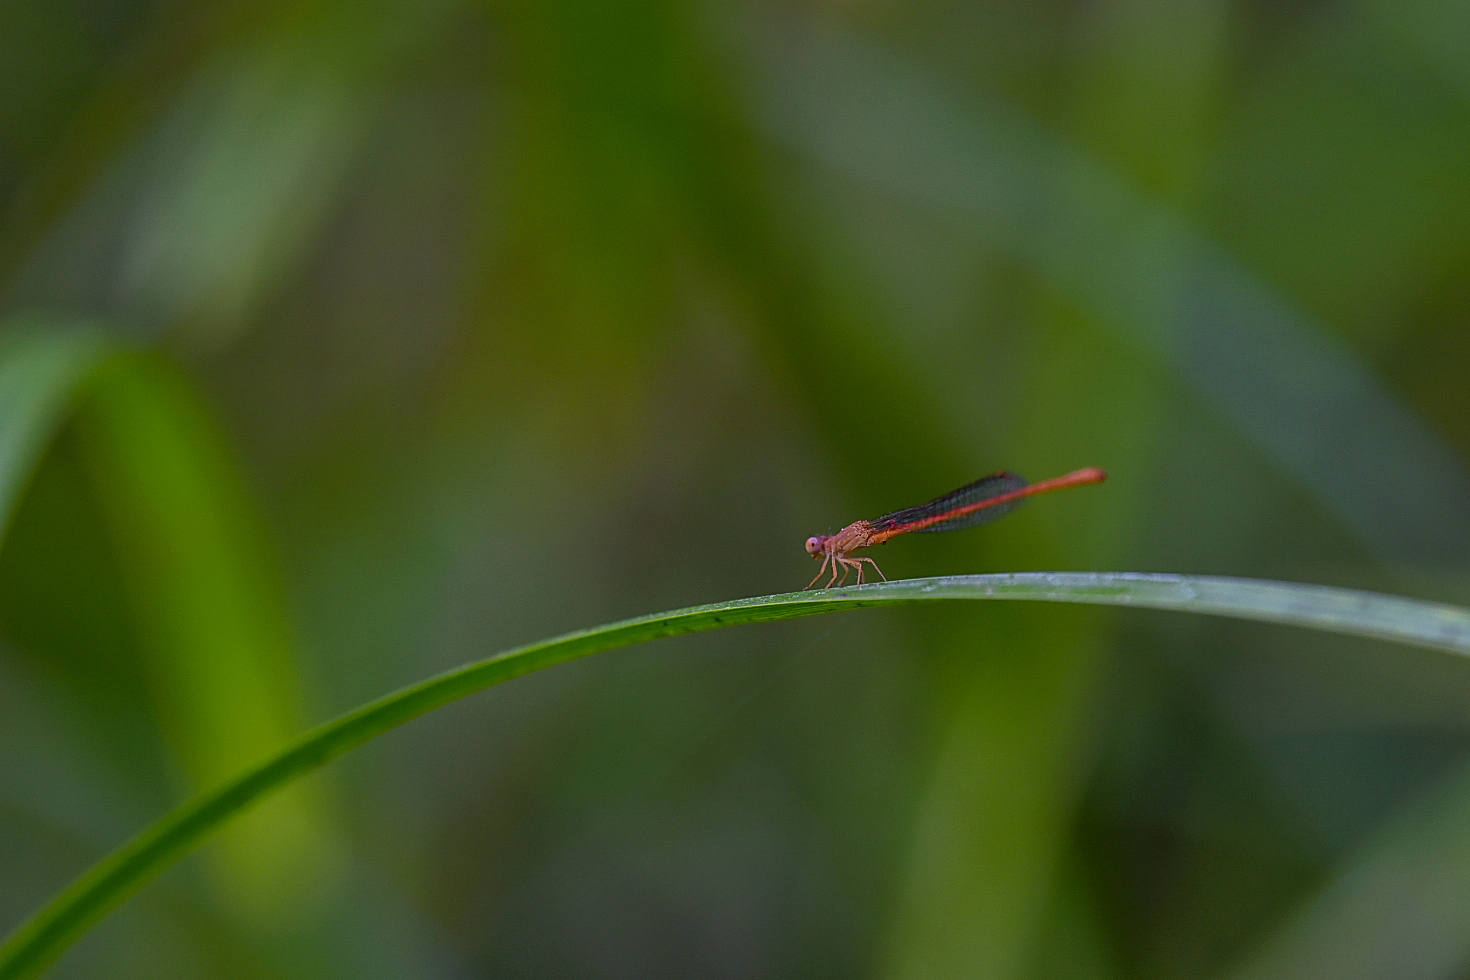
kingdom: Animalia
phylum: Arthropoda
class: Insecta
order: Odonata
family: Coenagrionidae
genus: Ceriagrion
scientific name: Ceriagrion rubiae
